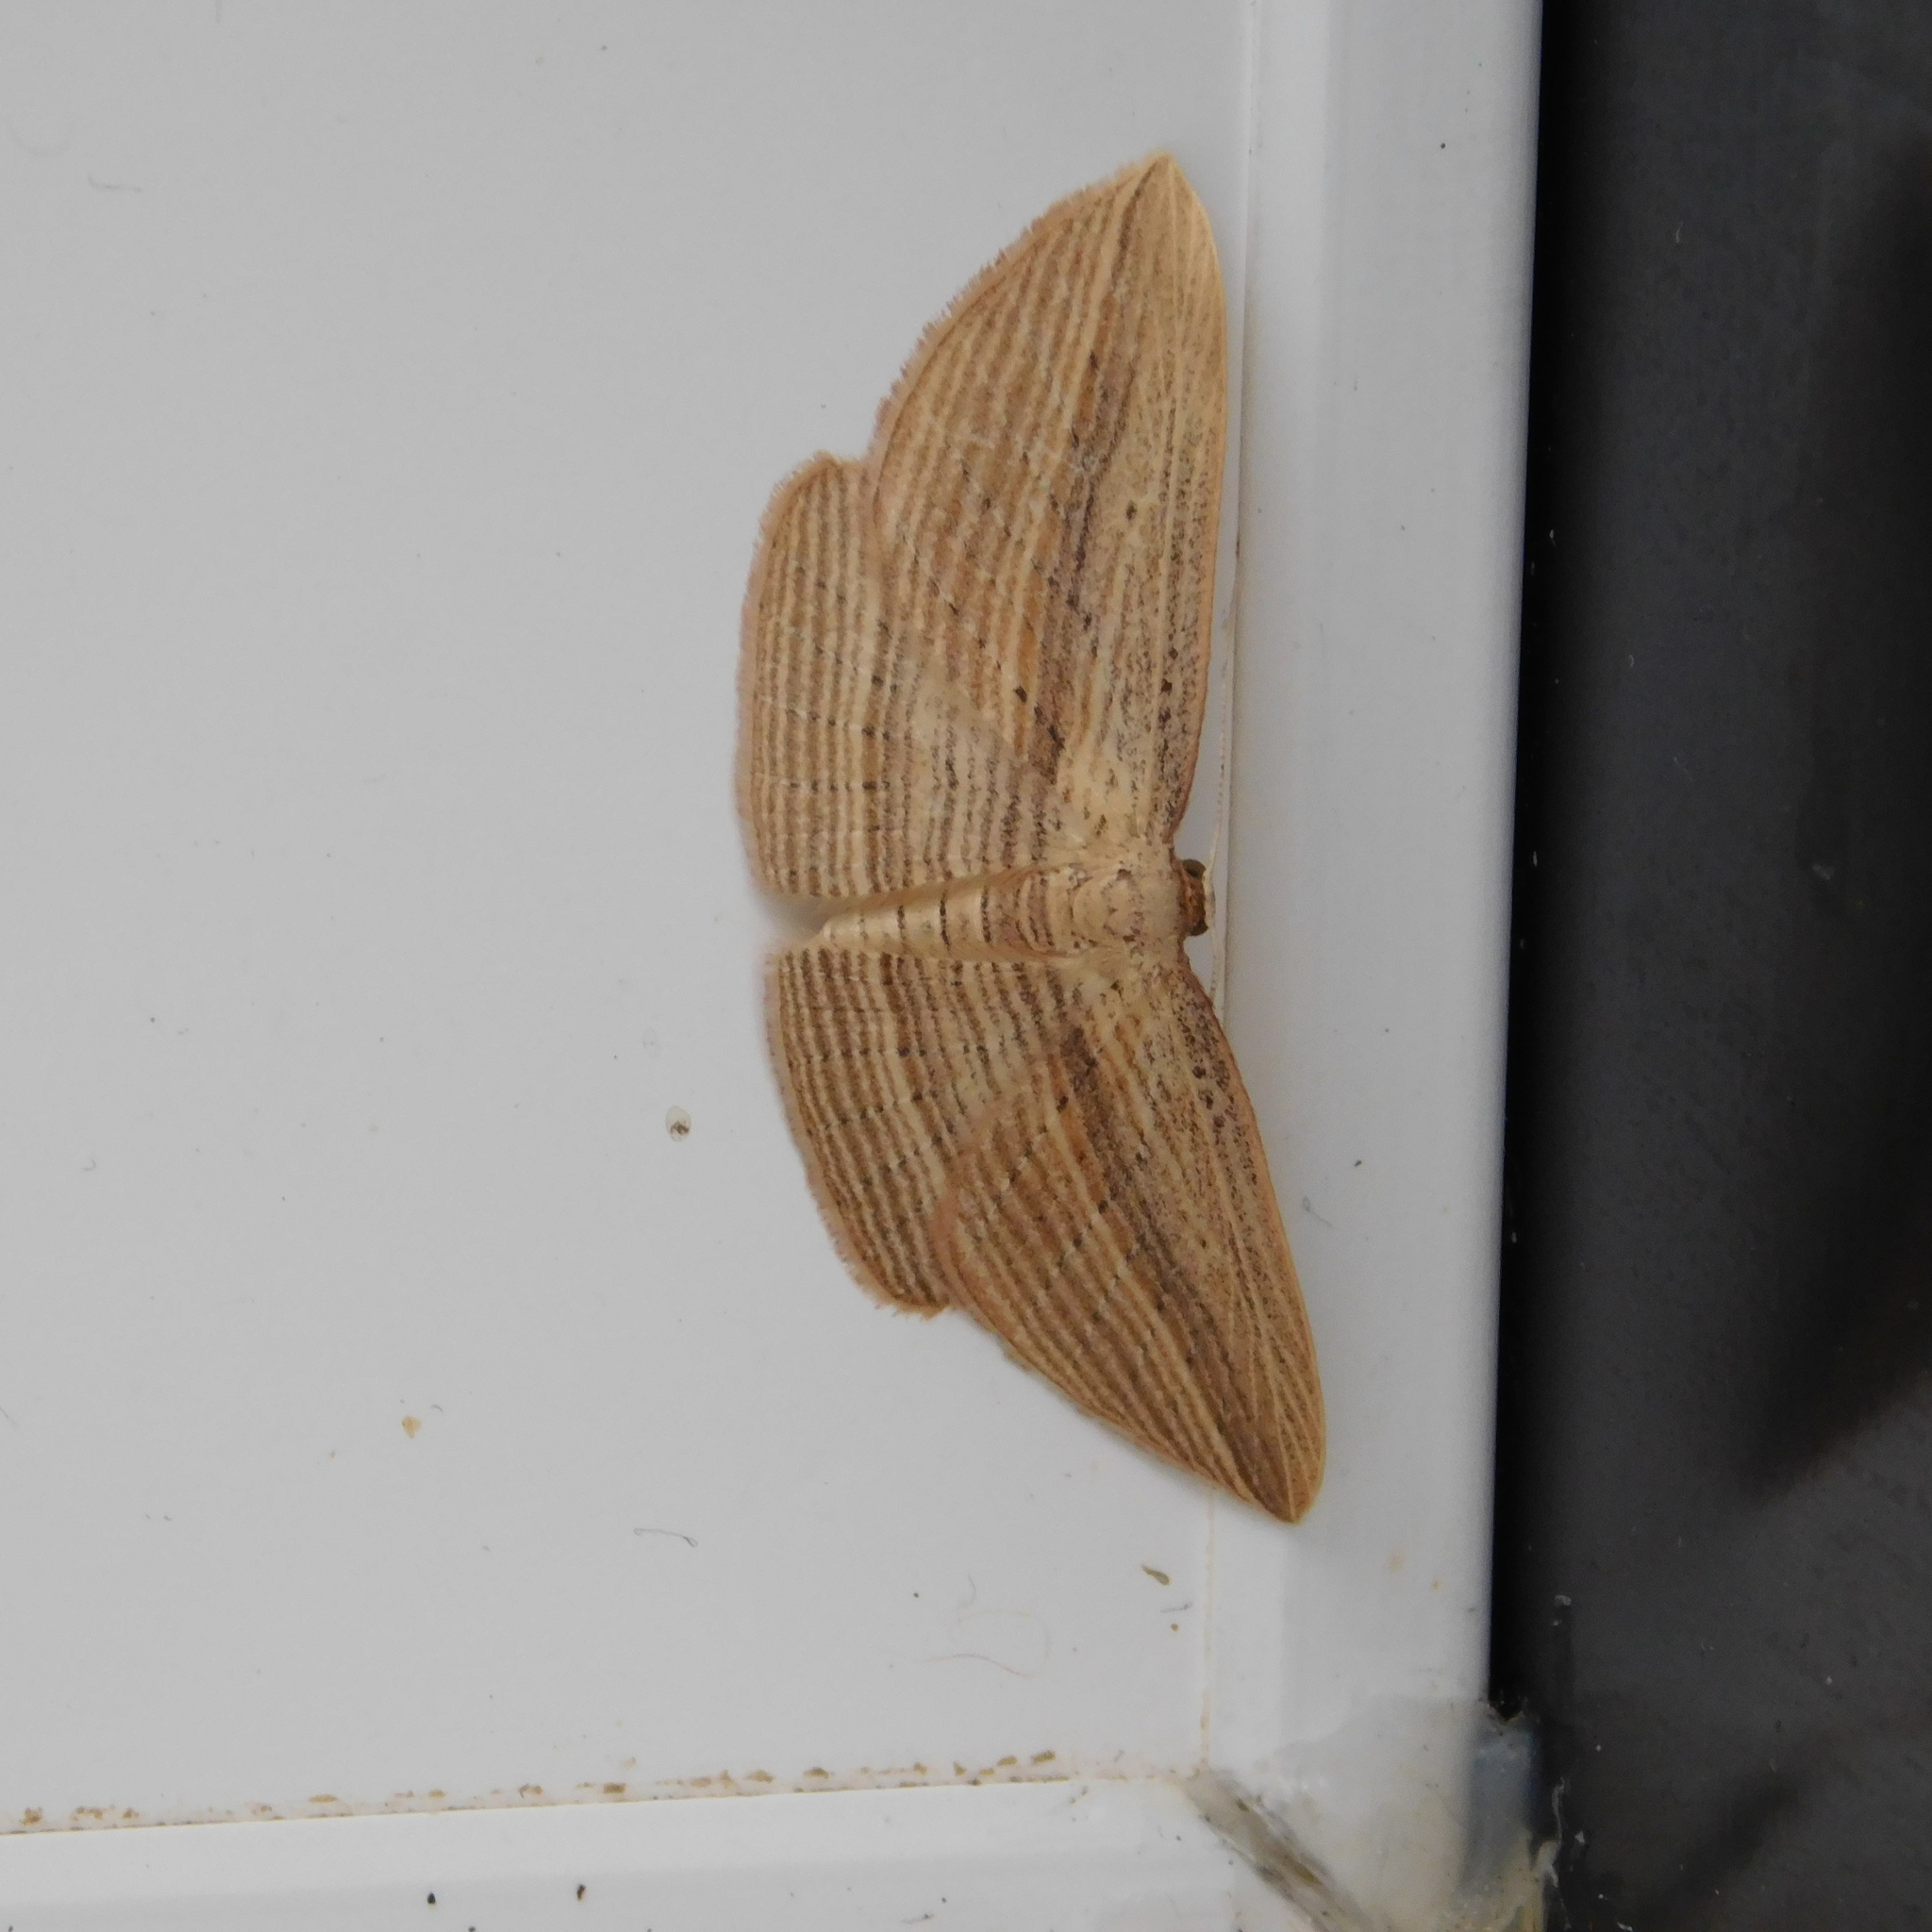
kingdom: Animalia
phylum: Arthropoda
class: Insecta
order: Lepidoptera
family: Geometridae
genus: Epiphryne
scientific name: Epiphryne verriculata
